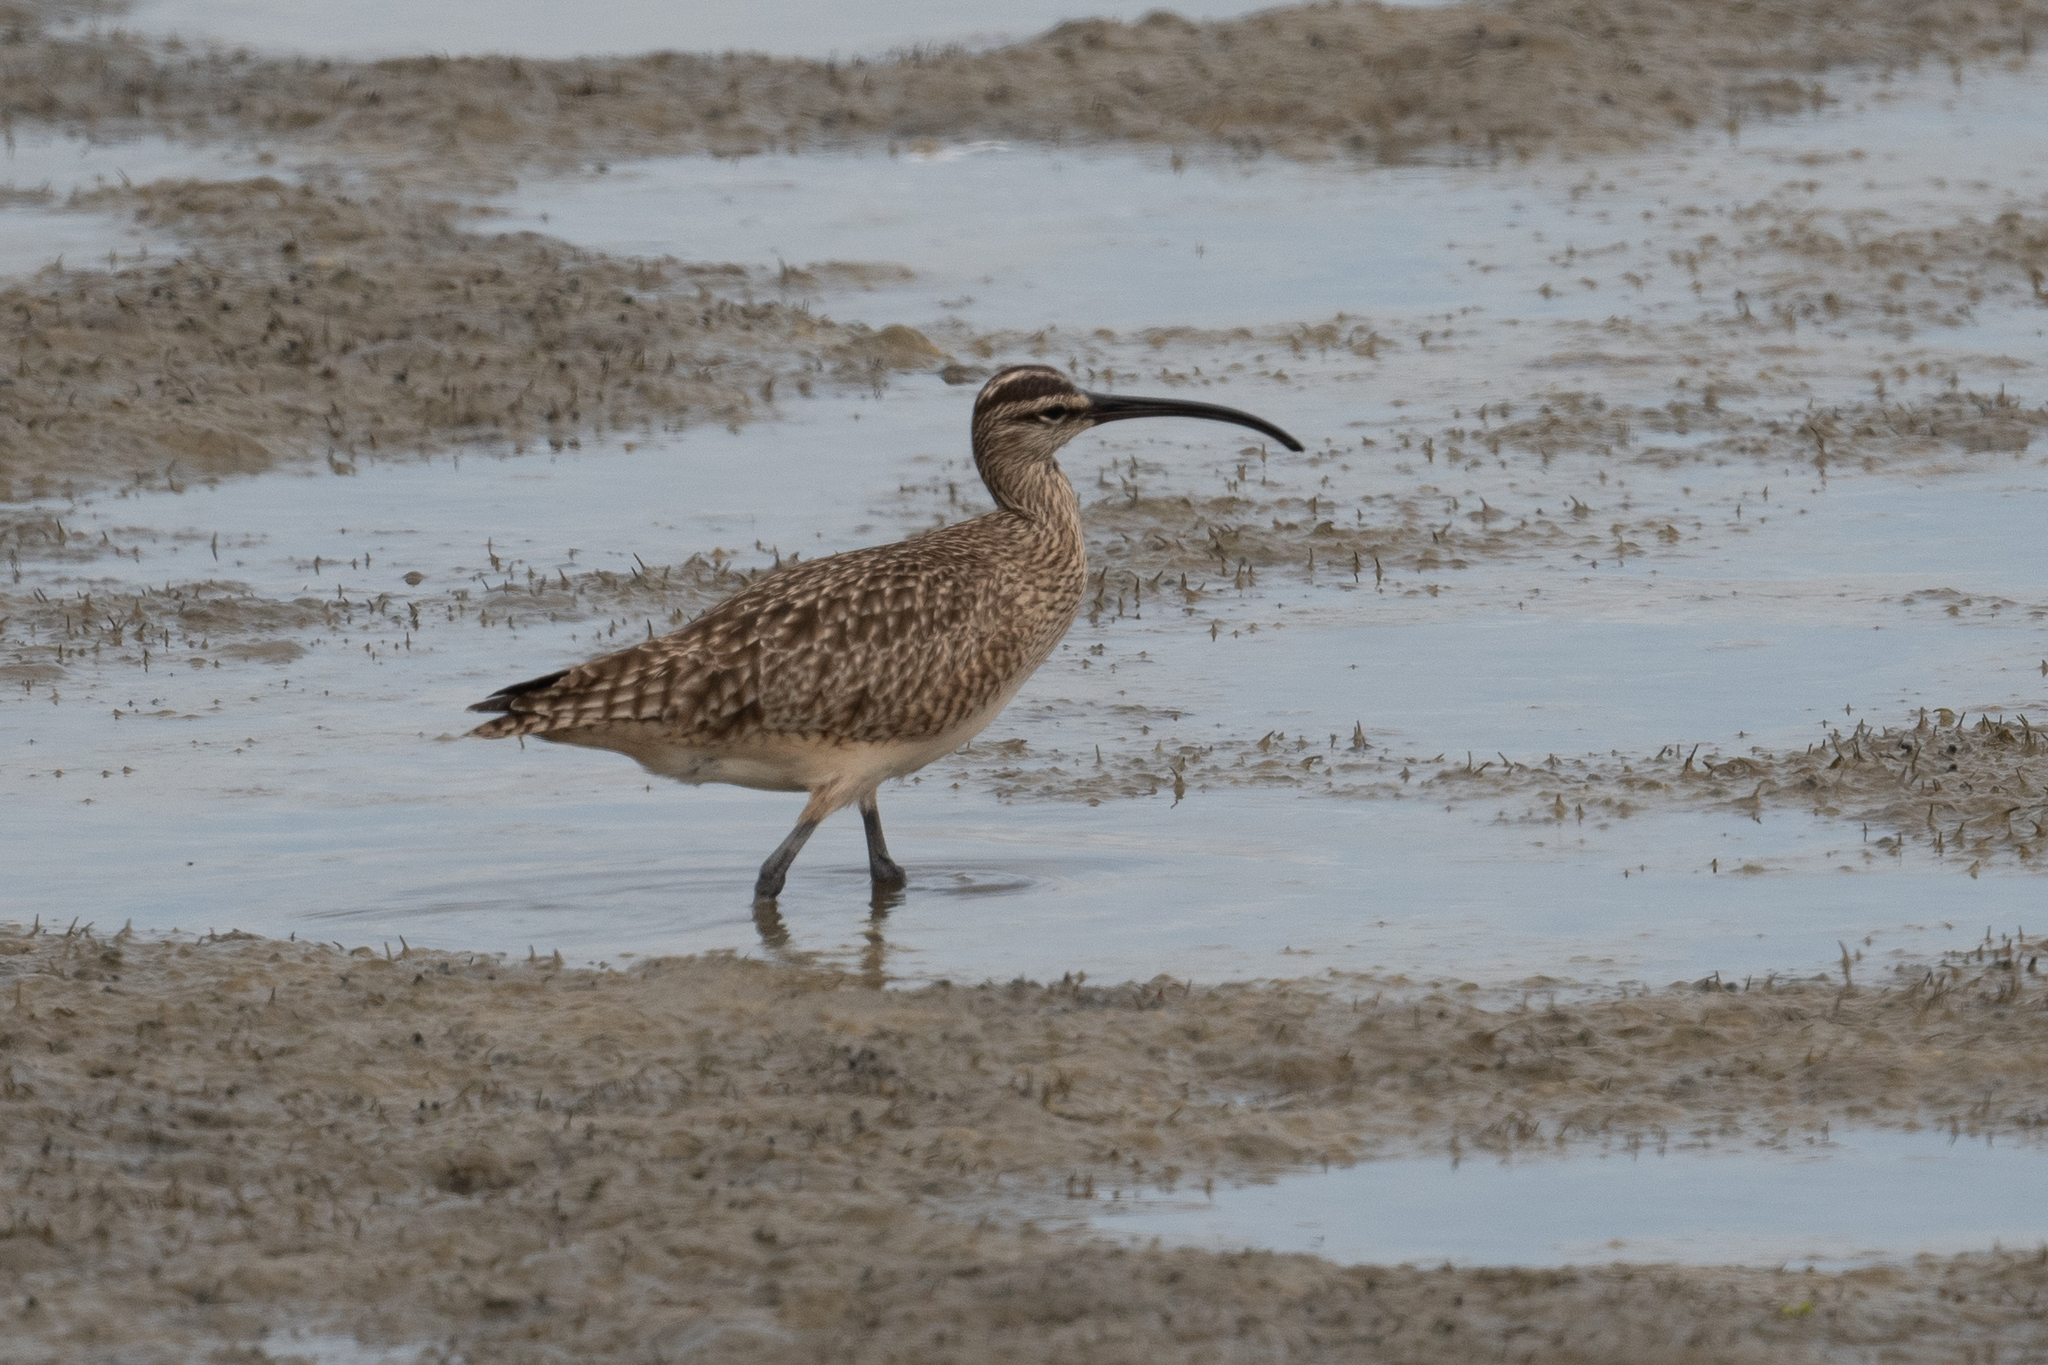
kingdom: Animalia
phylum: Chordata
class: Aves
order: Charadriiformes
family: Scolopacidae
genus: Numenius
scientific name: Numenius phaeopus
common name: Whimbrel
